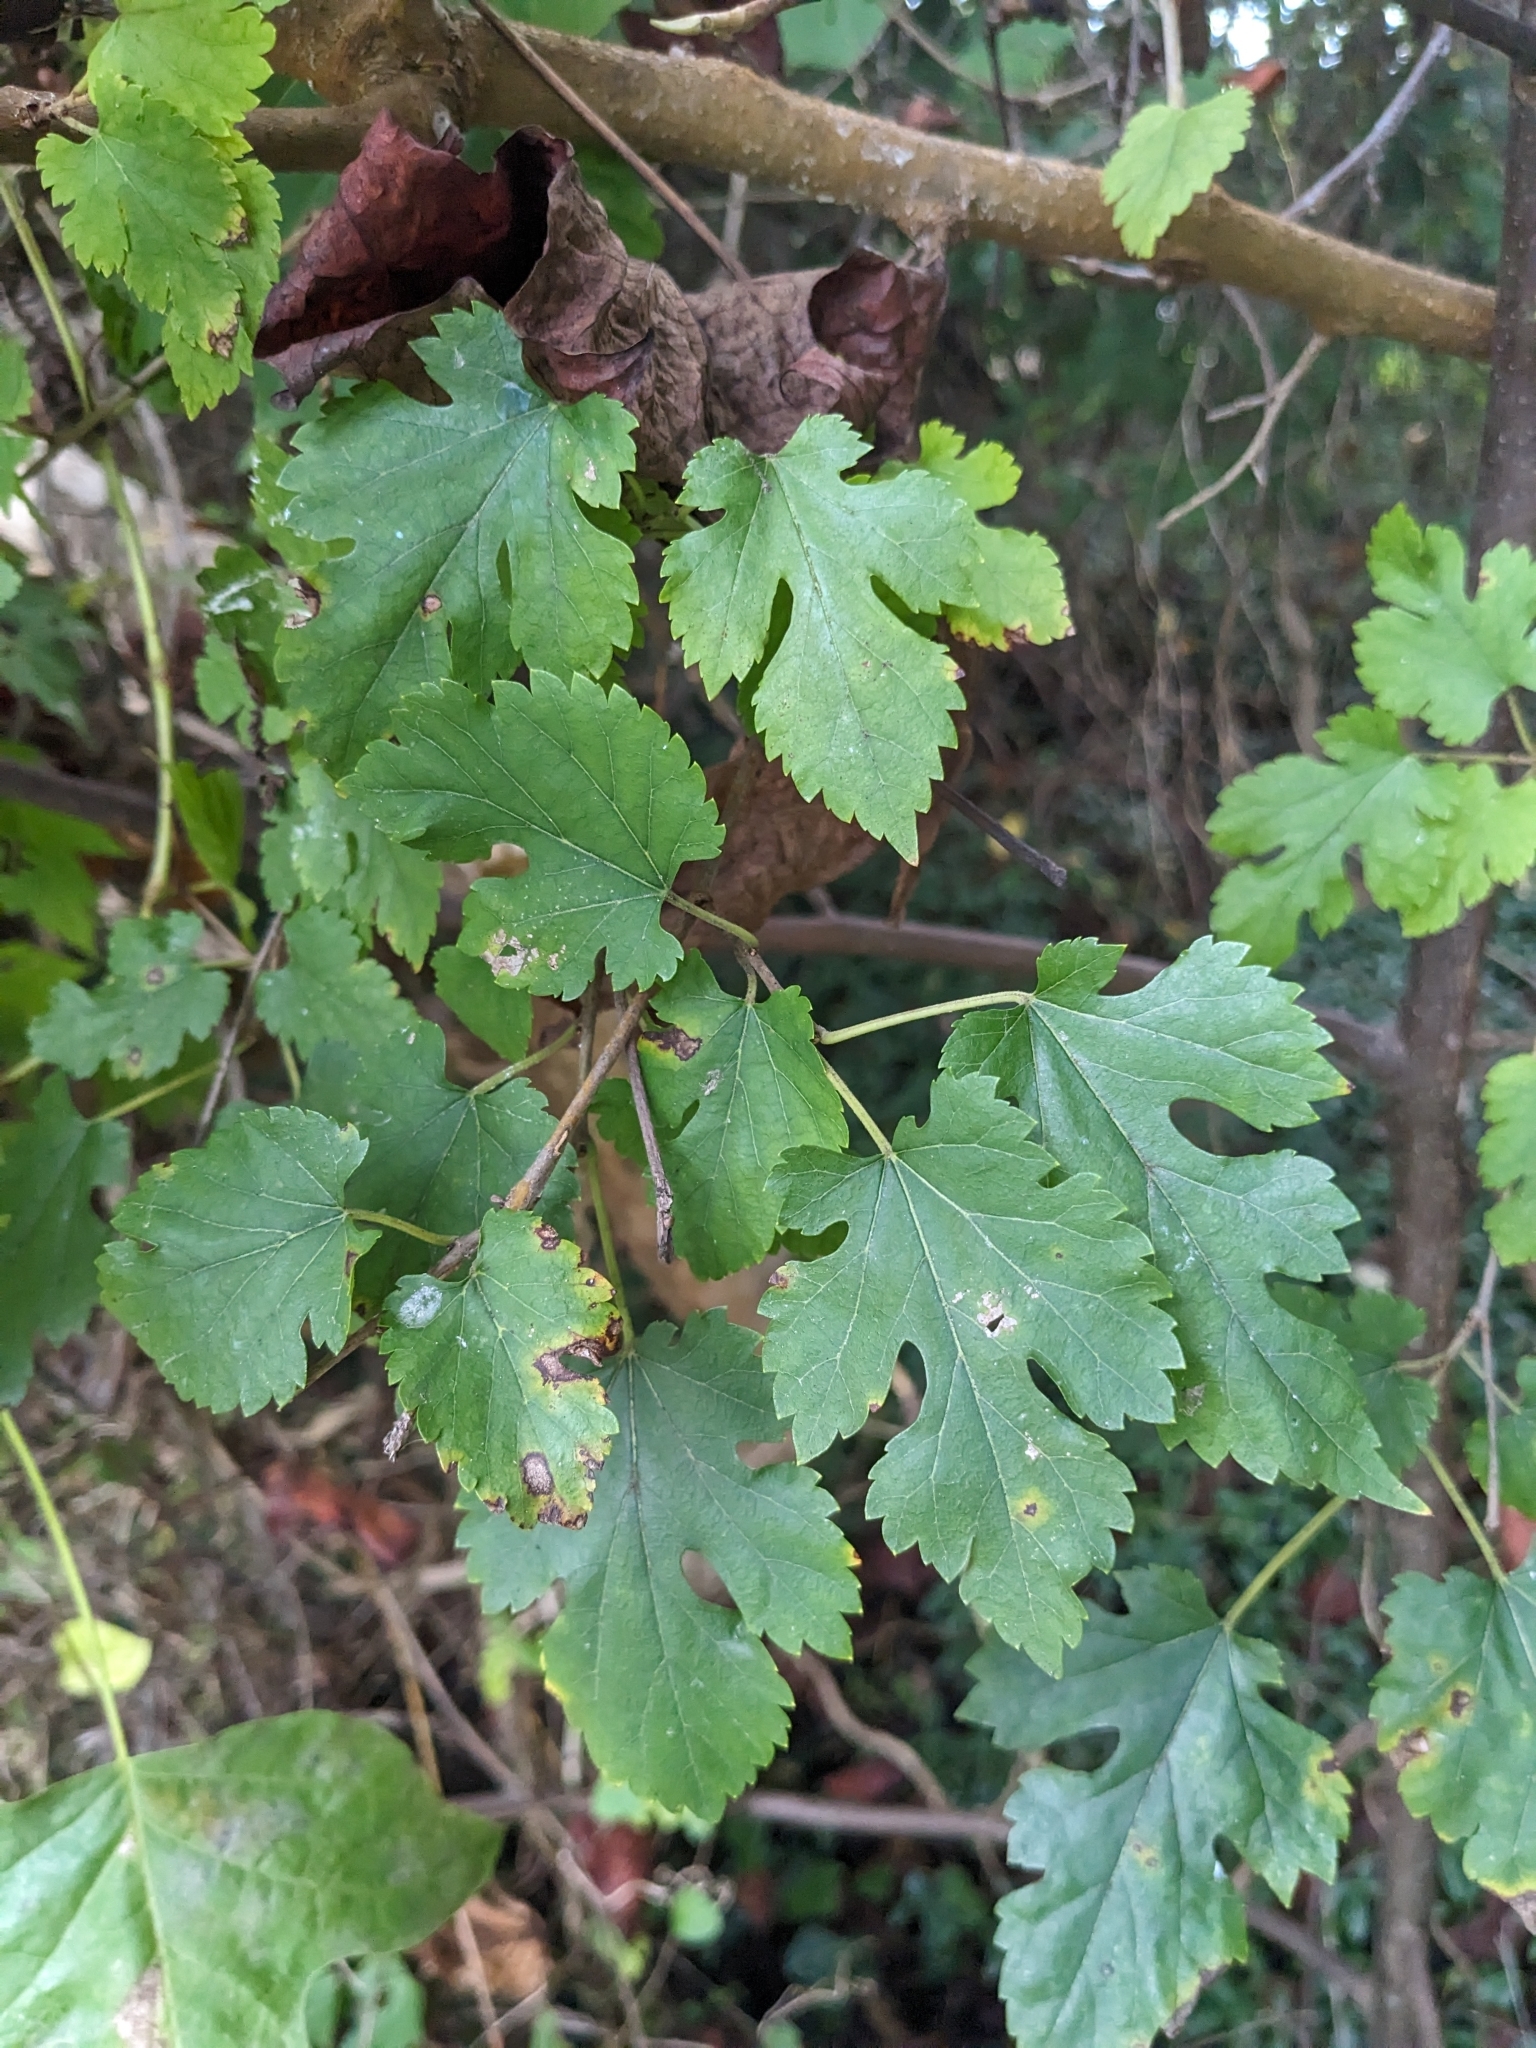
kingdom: Plantae
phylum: Tracheophyta
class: Magnoliopsida
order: Rosales
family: Moraceae
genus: Morus
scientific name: Morus alba
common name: White mulberry
